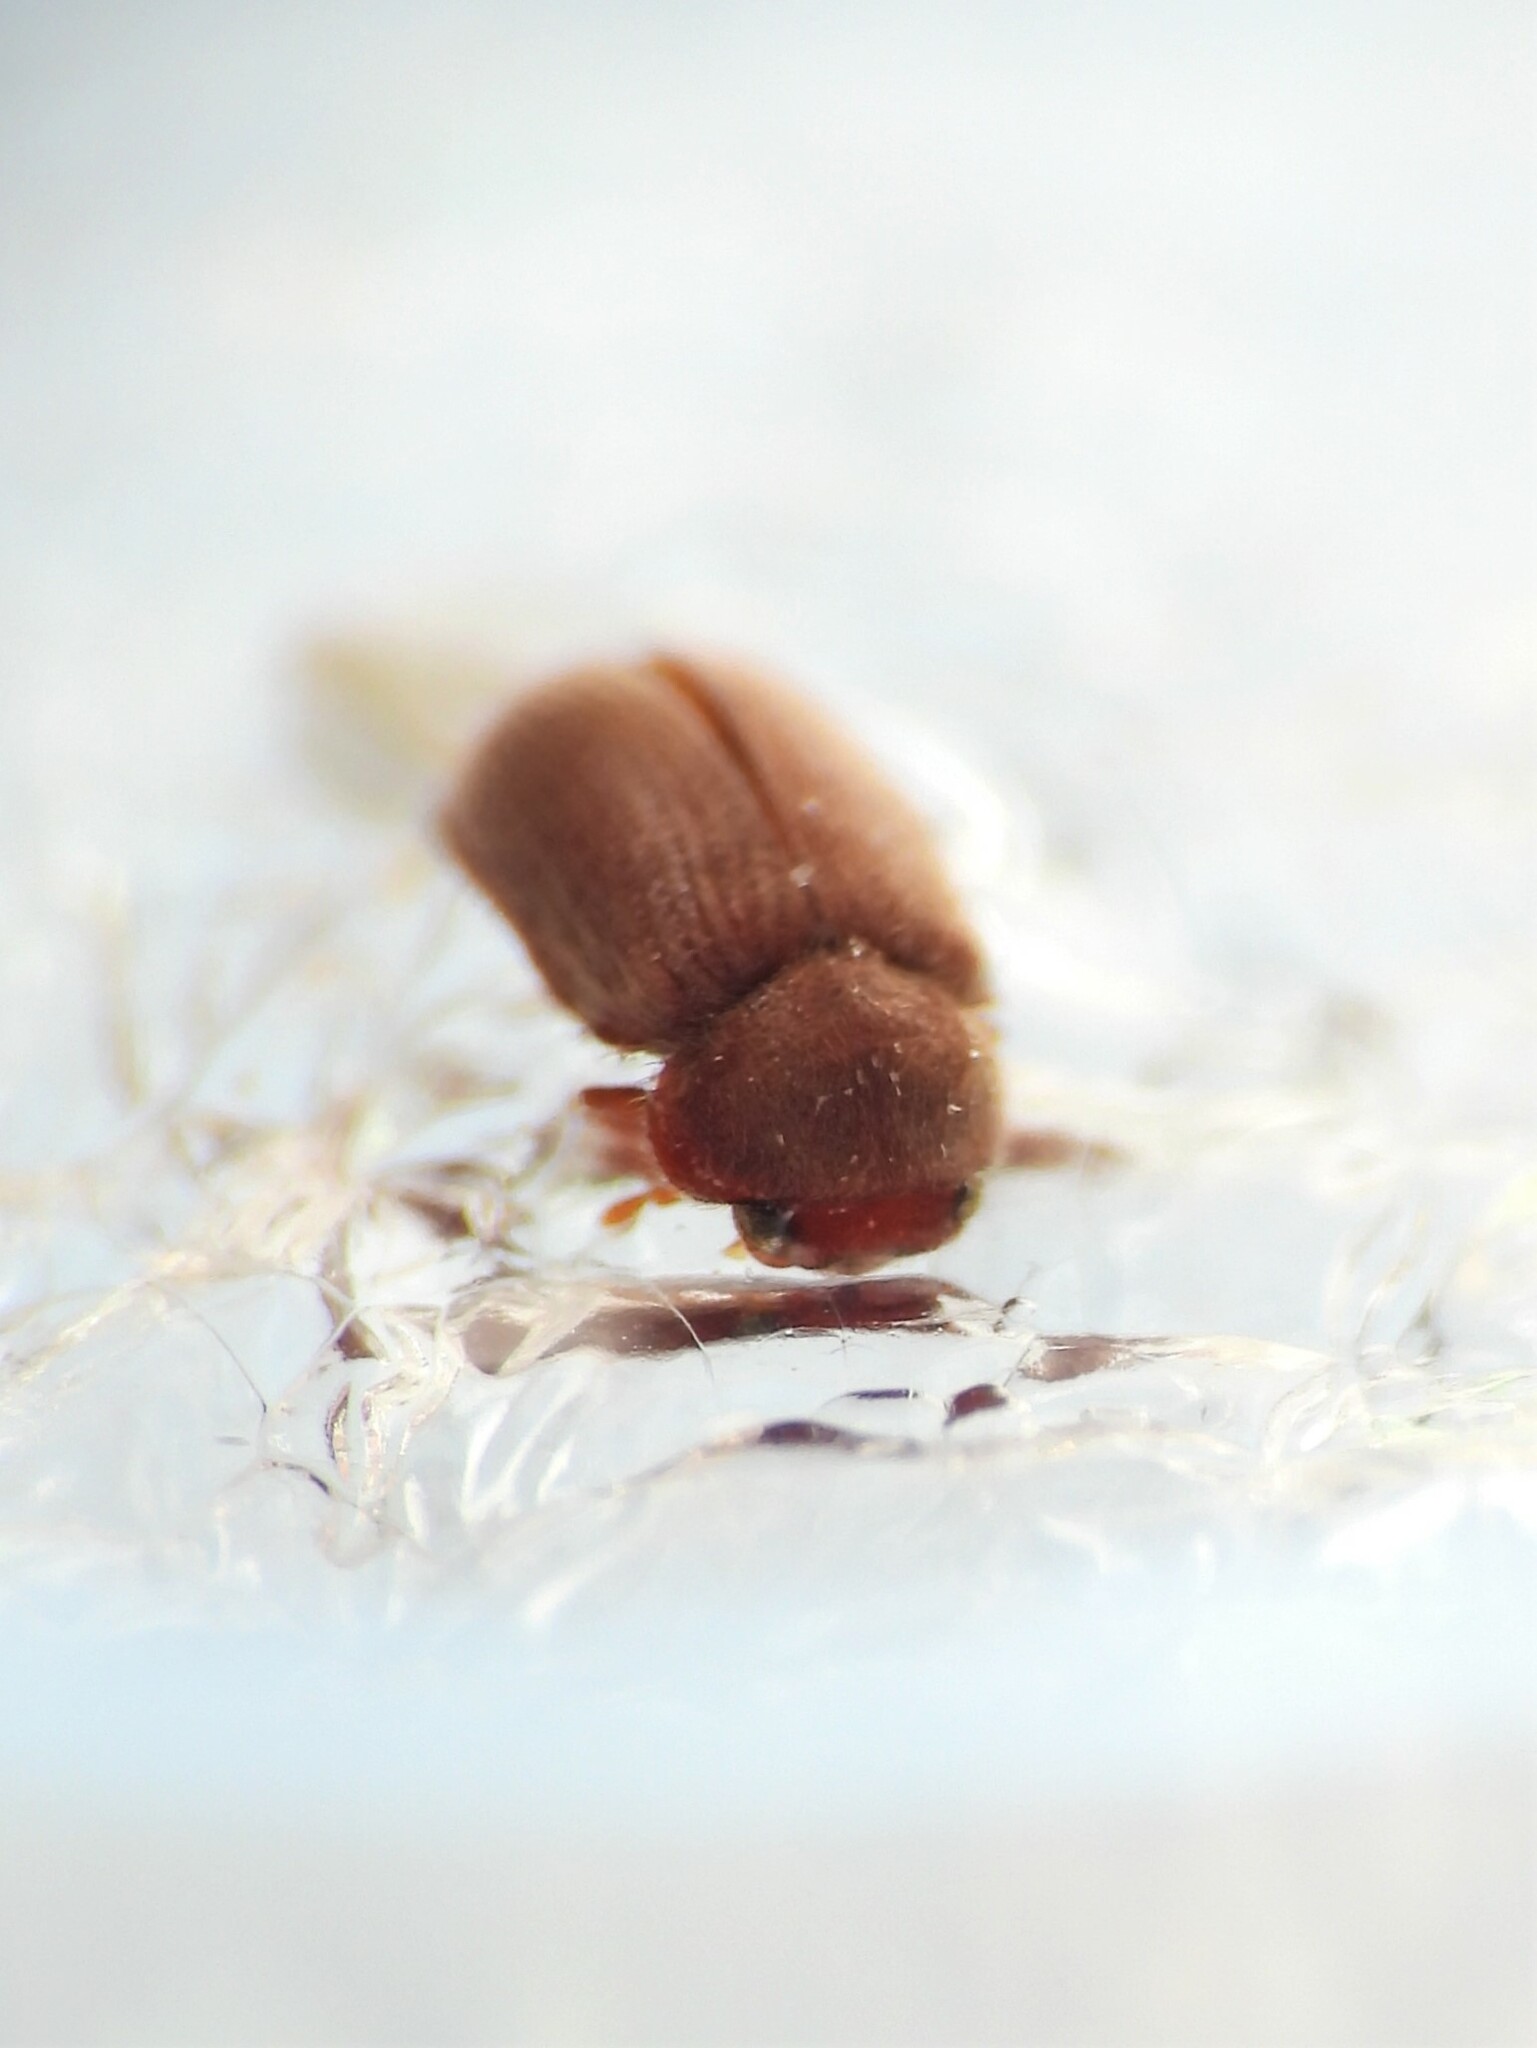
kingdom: Animalia
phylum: Arthropoda
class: Insecta
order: Coleoptera
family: Anobiidae
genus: Stegobium
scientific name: Stegobium paniceum
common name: Drugstore beetle
